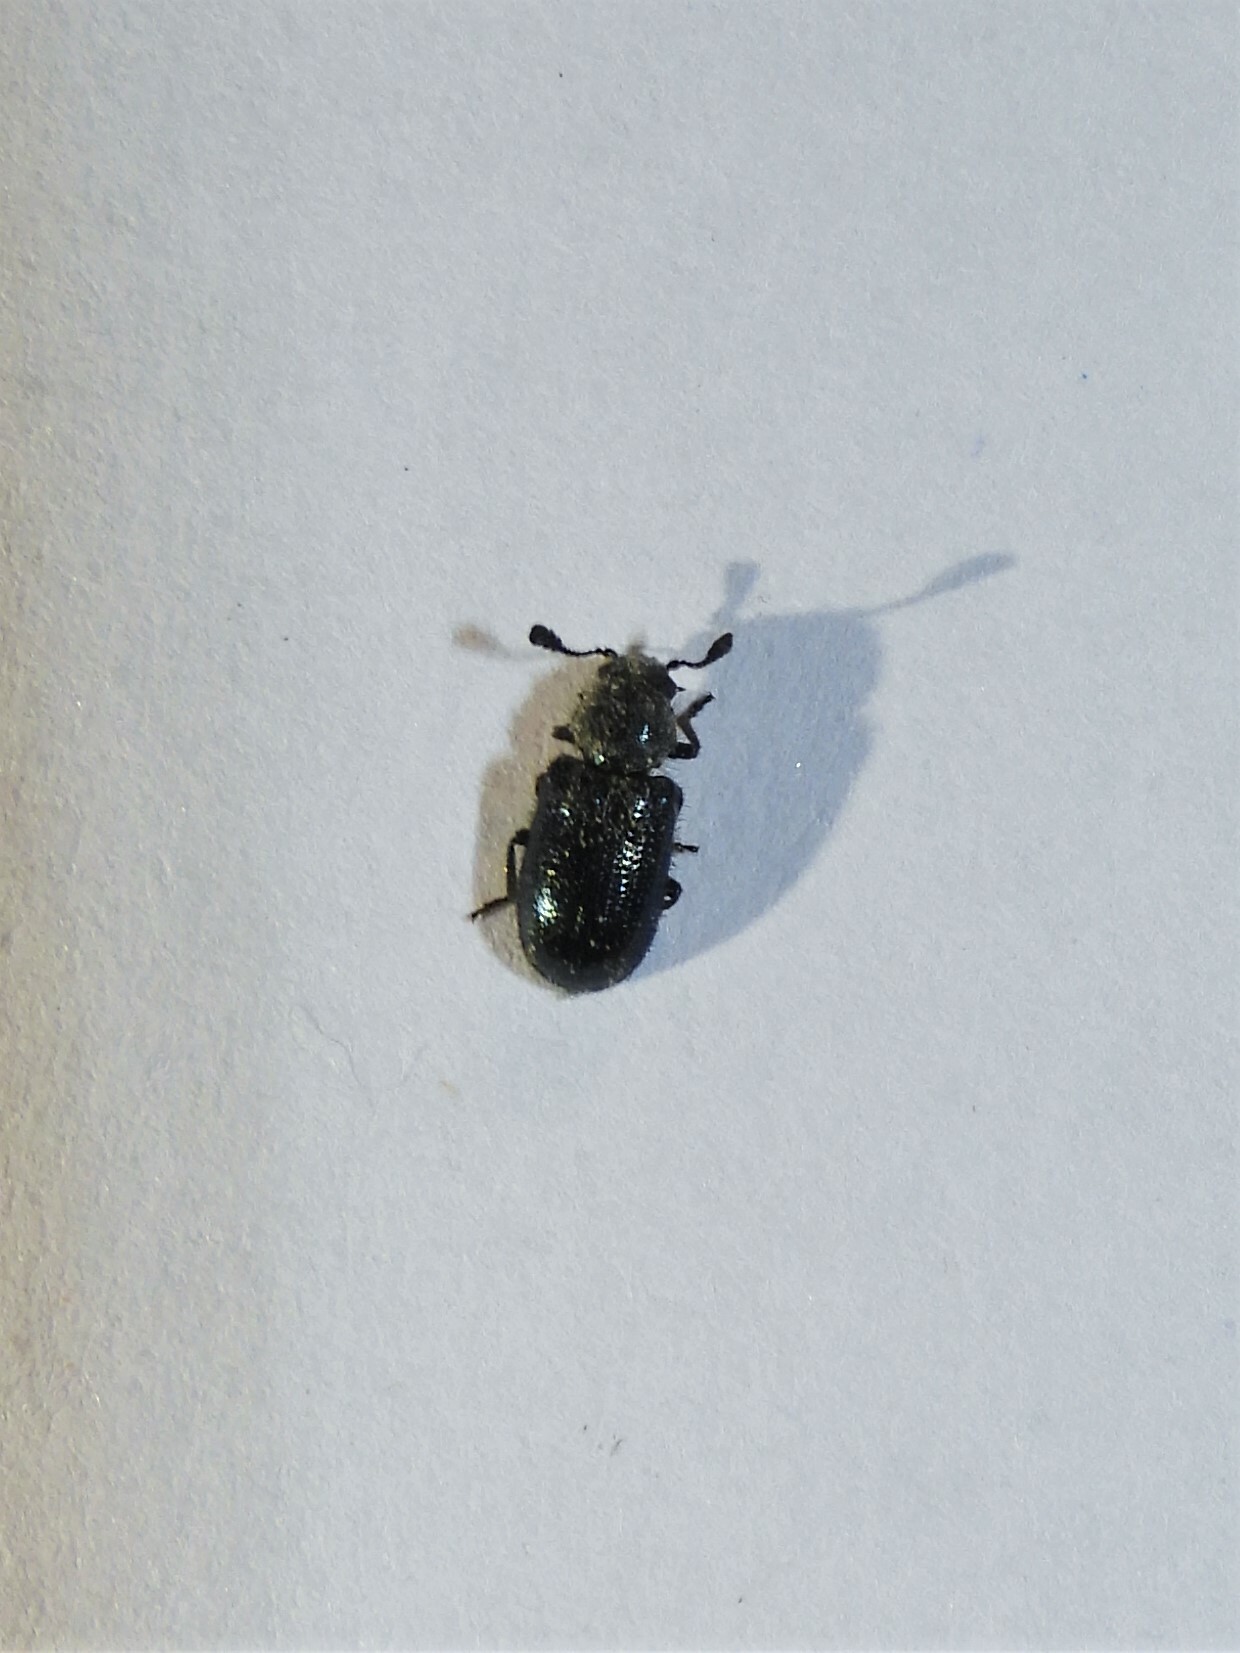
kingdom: Animalia
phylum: Arthropoda
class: Insecta
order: Coleoptera
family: Cleridae
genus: Necrobia
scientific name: Necrobia violacea
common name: Violet checkered beetle
